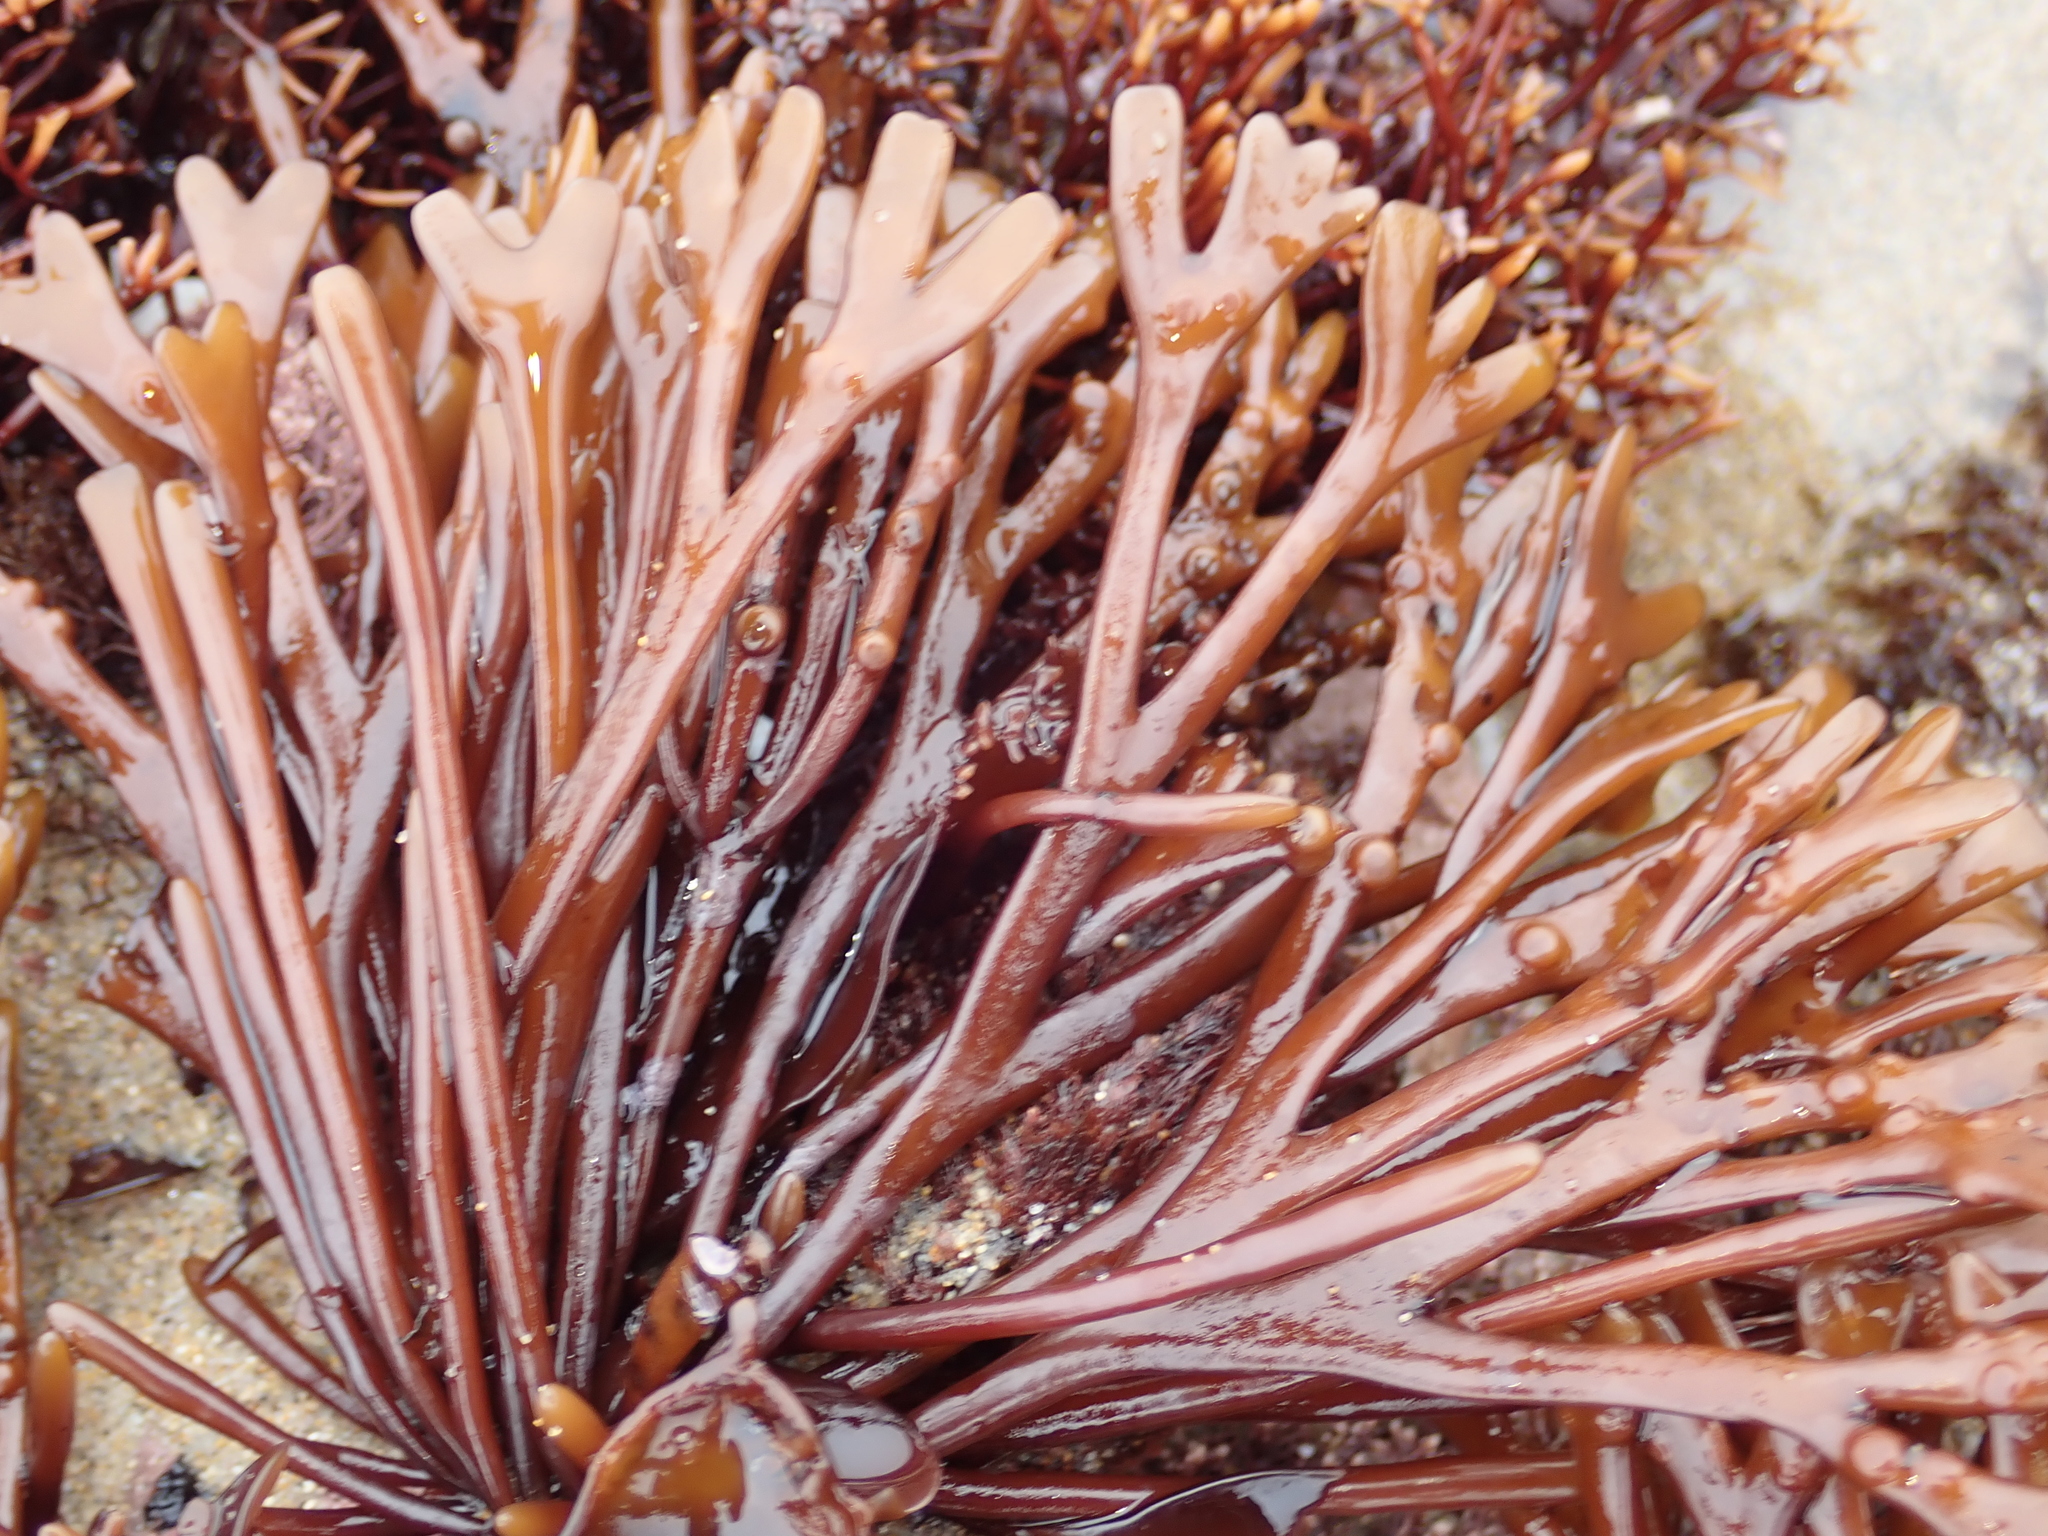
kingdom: Plantae
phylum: Rhodophyta
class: Florideophyceae
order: Gigartinales
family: Phyllophoraceae
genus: Ahnfeltiopsis
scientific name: Ahnfeltiopsis linearis
